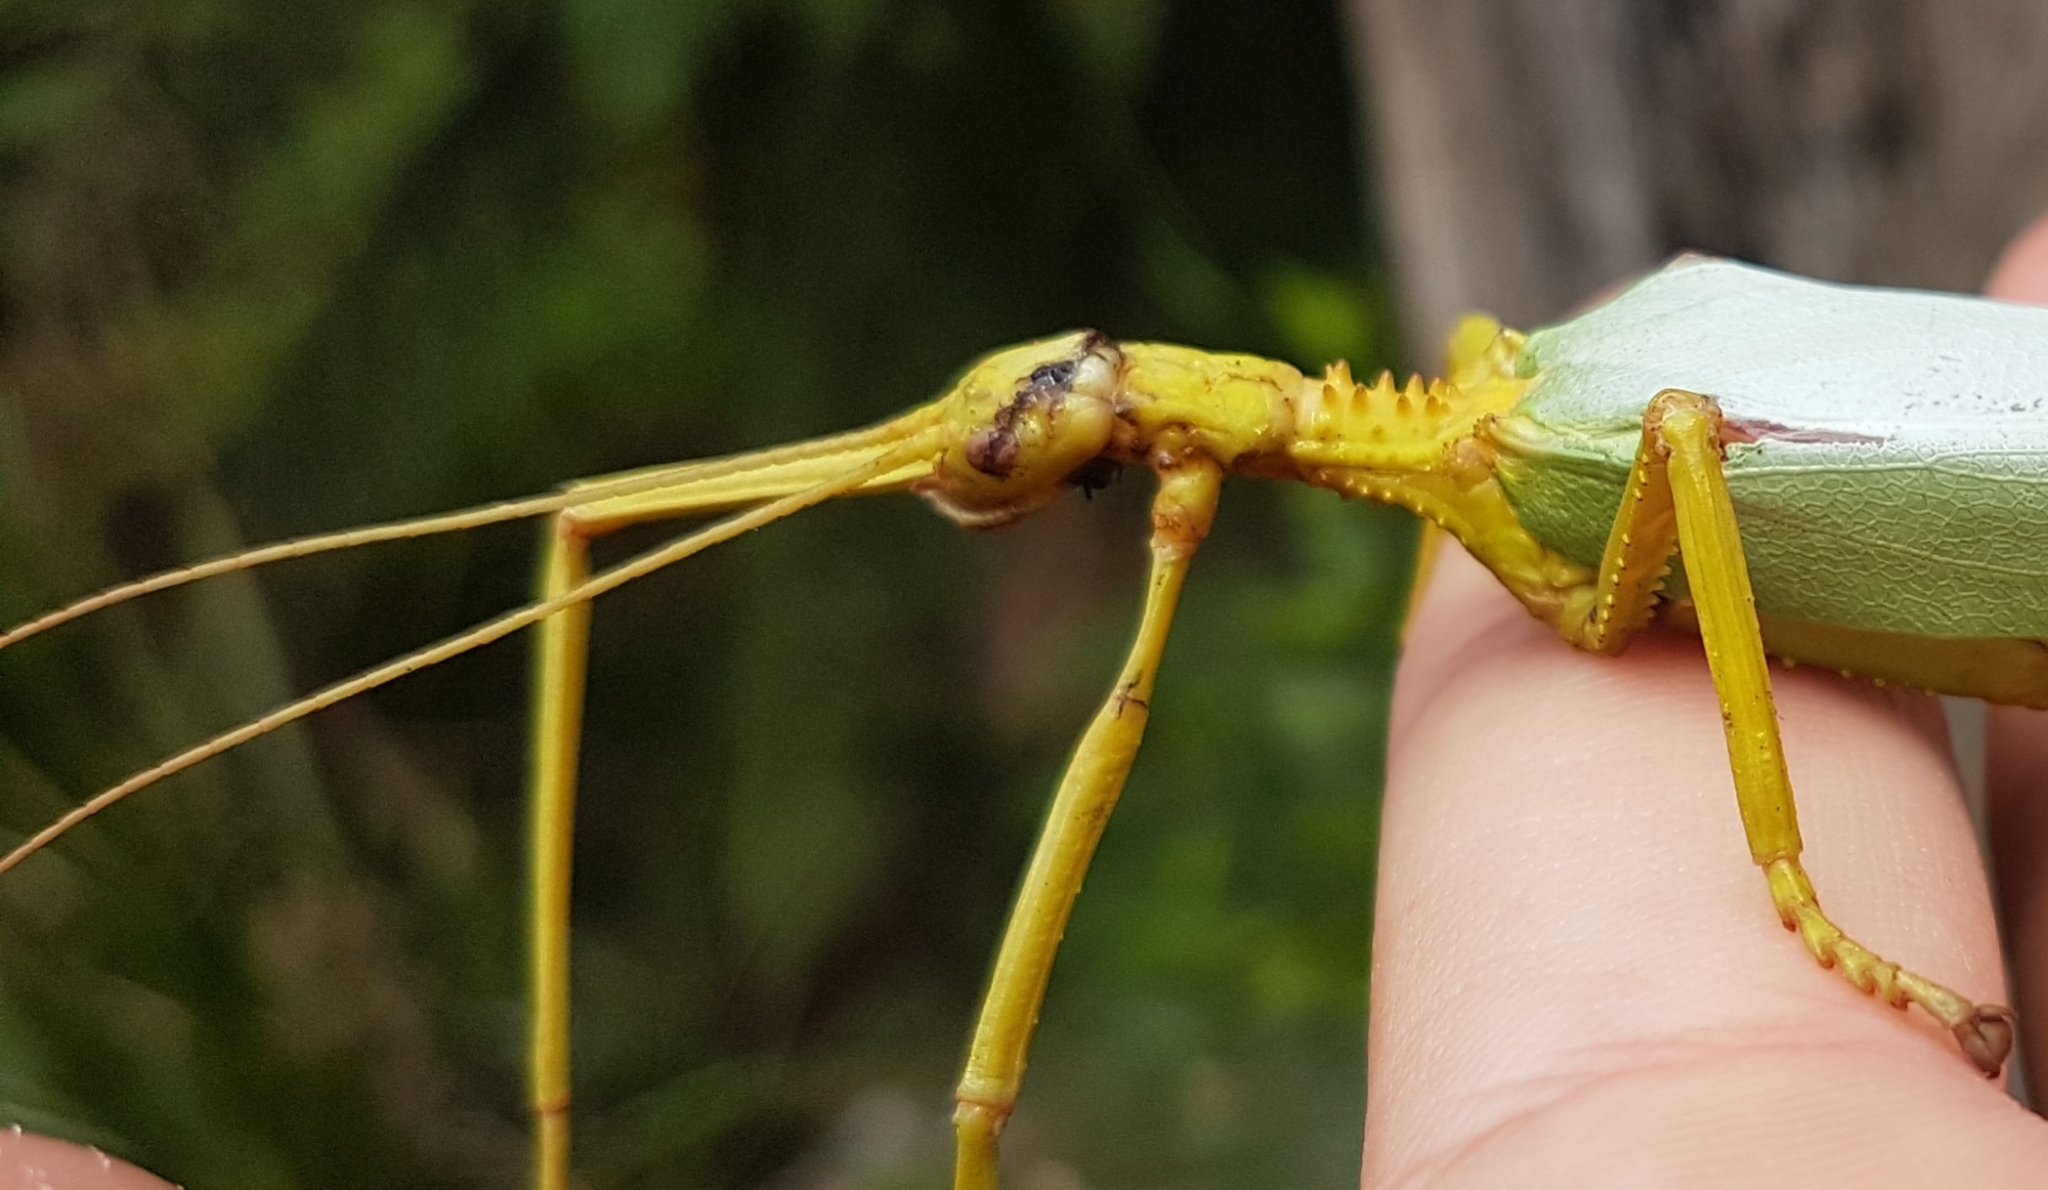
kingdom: Animalia
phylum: Arthropoda
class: Insecta
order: Phasmida
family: Phasmatidae
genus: Podacanthus
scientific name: Podacanthus typhon
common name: Large pink-winged stick-insect
